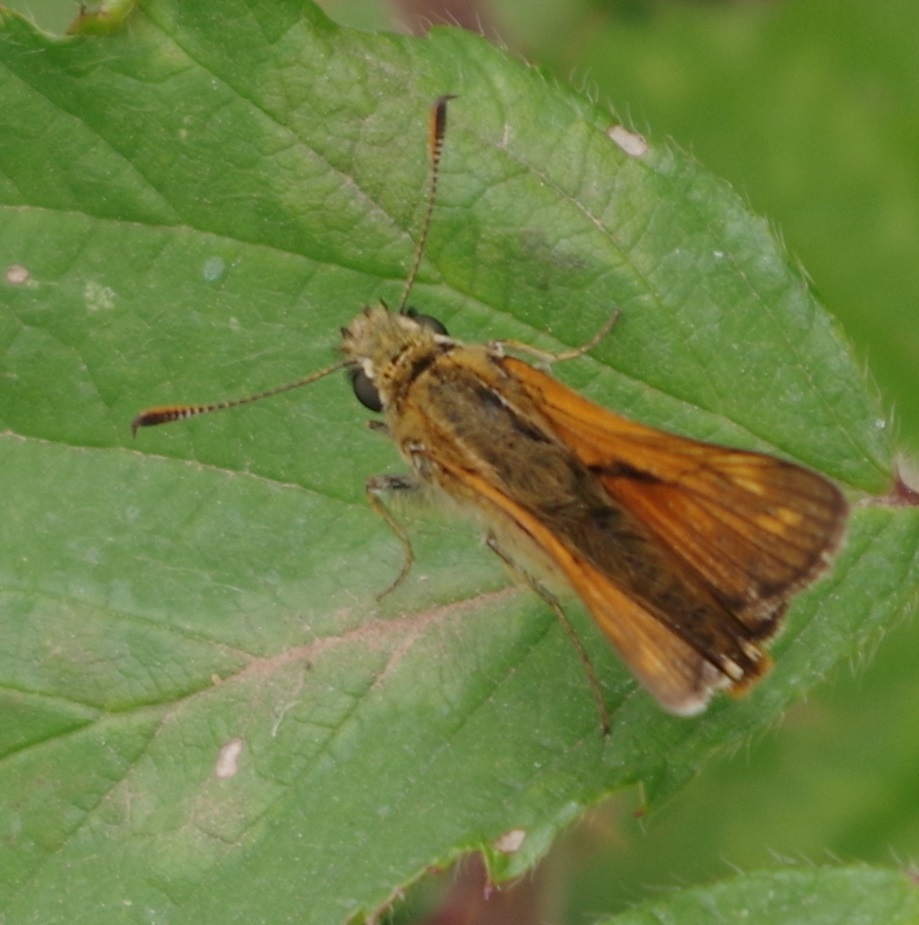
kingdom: Animalia
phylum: Arthropoda
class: Insecta
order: Lepidoptera
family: Hesperiidae
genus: Ochlodes
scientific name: Ochlodes venata
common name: Large skipper
